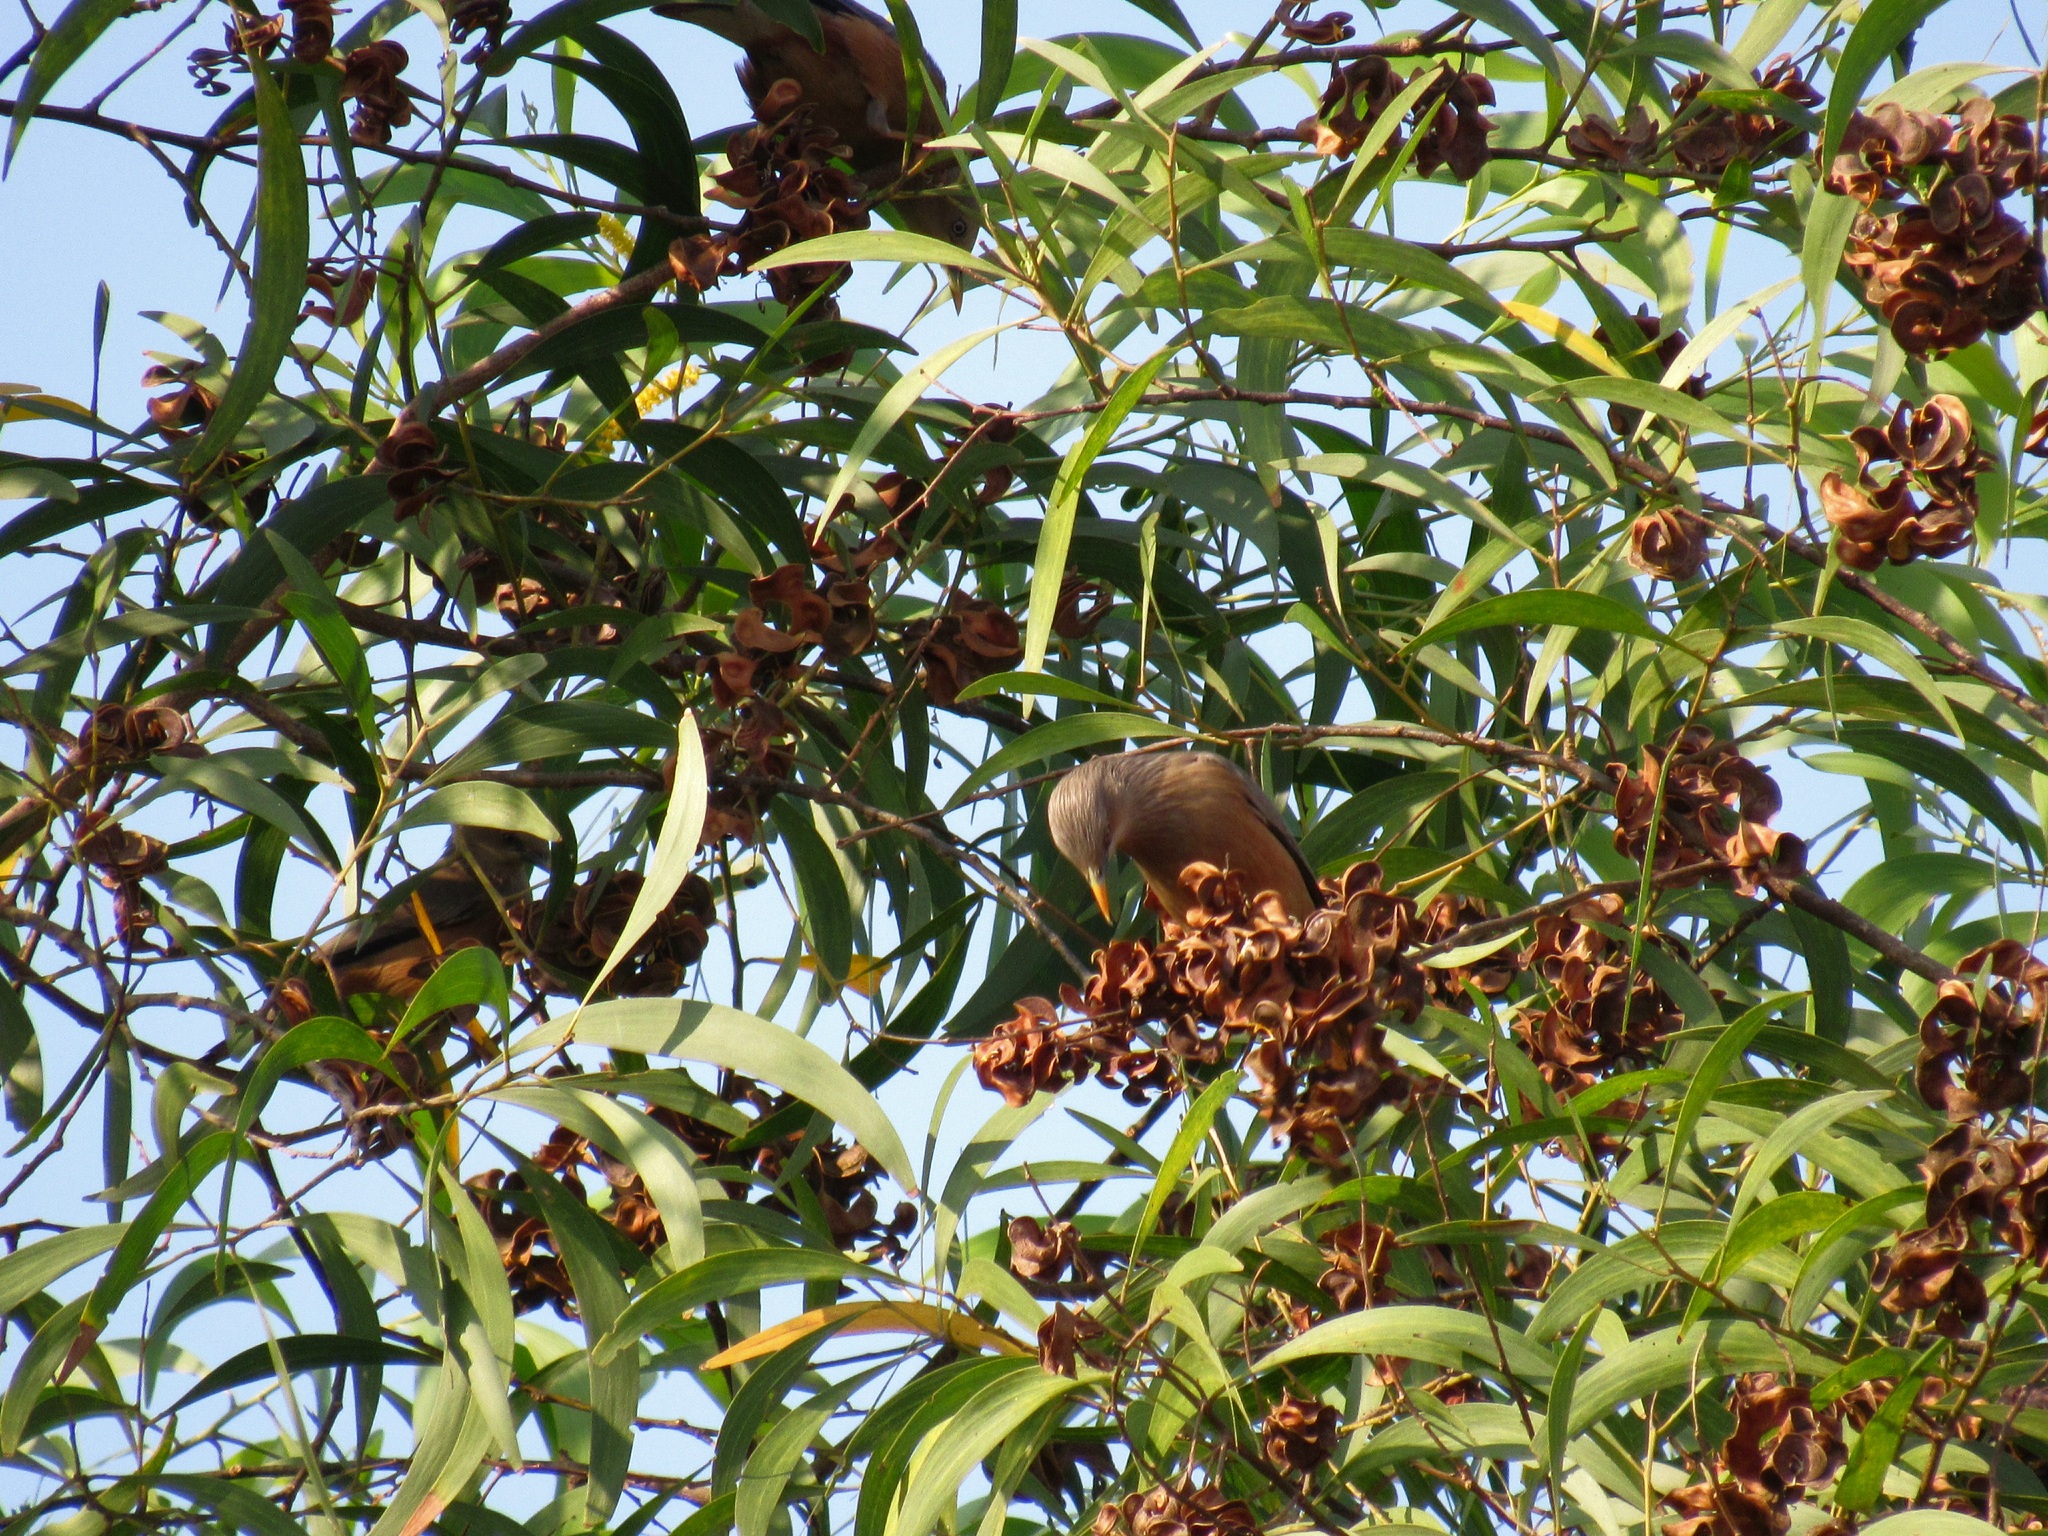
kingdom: Animalia
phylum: Chordata
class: Aves
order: Passeriformes
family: Sturnidae
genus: Sturnia
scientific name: Sturnia malabarica
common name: Chestnut-tailed starling
